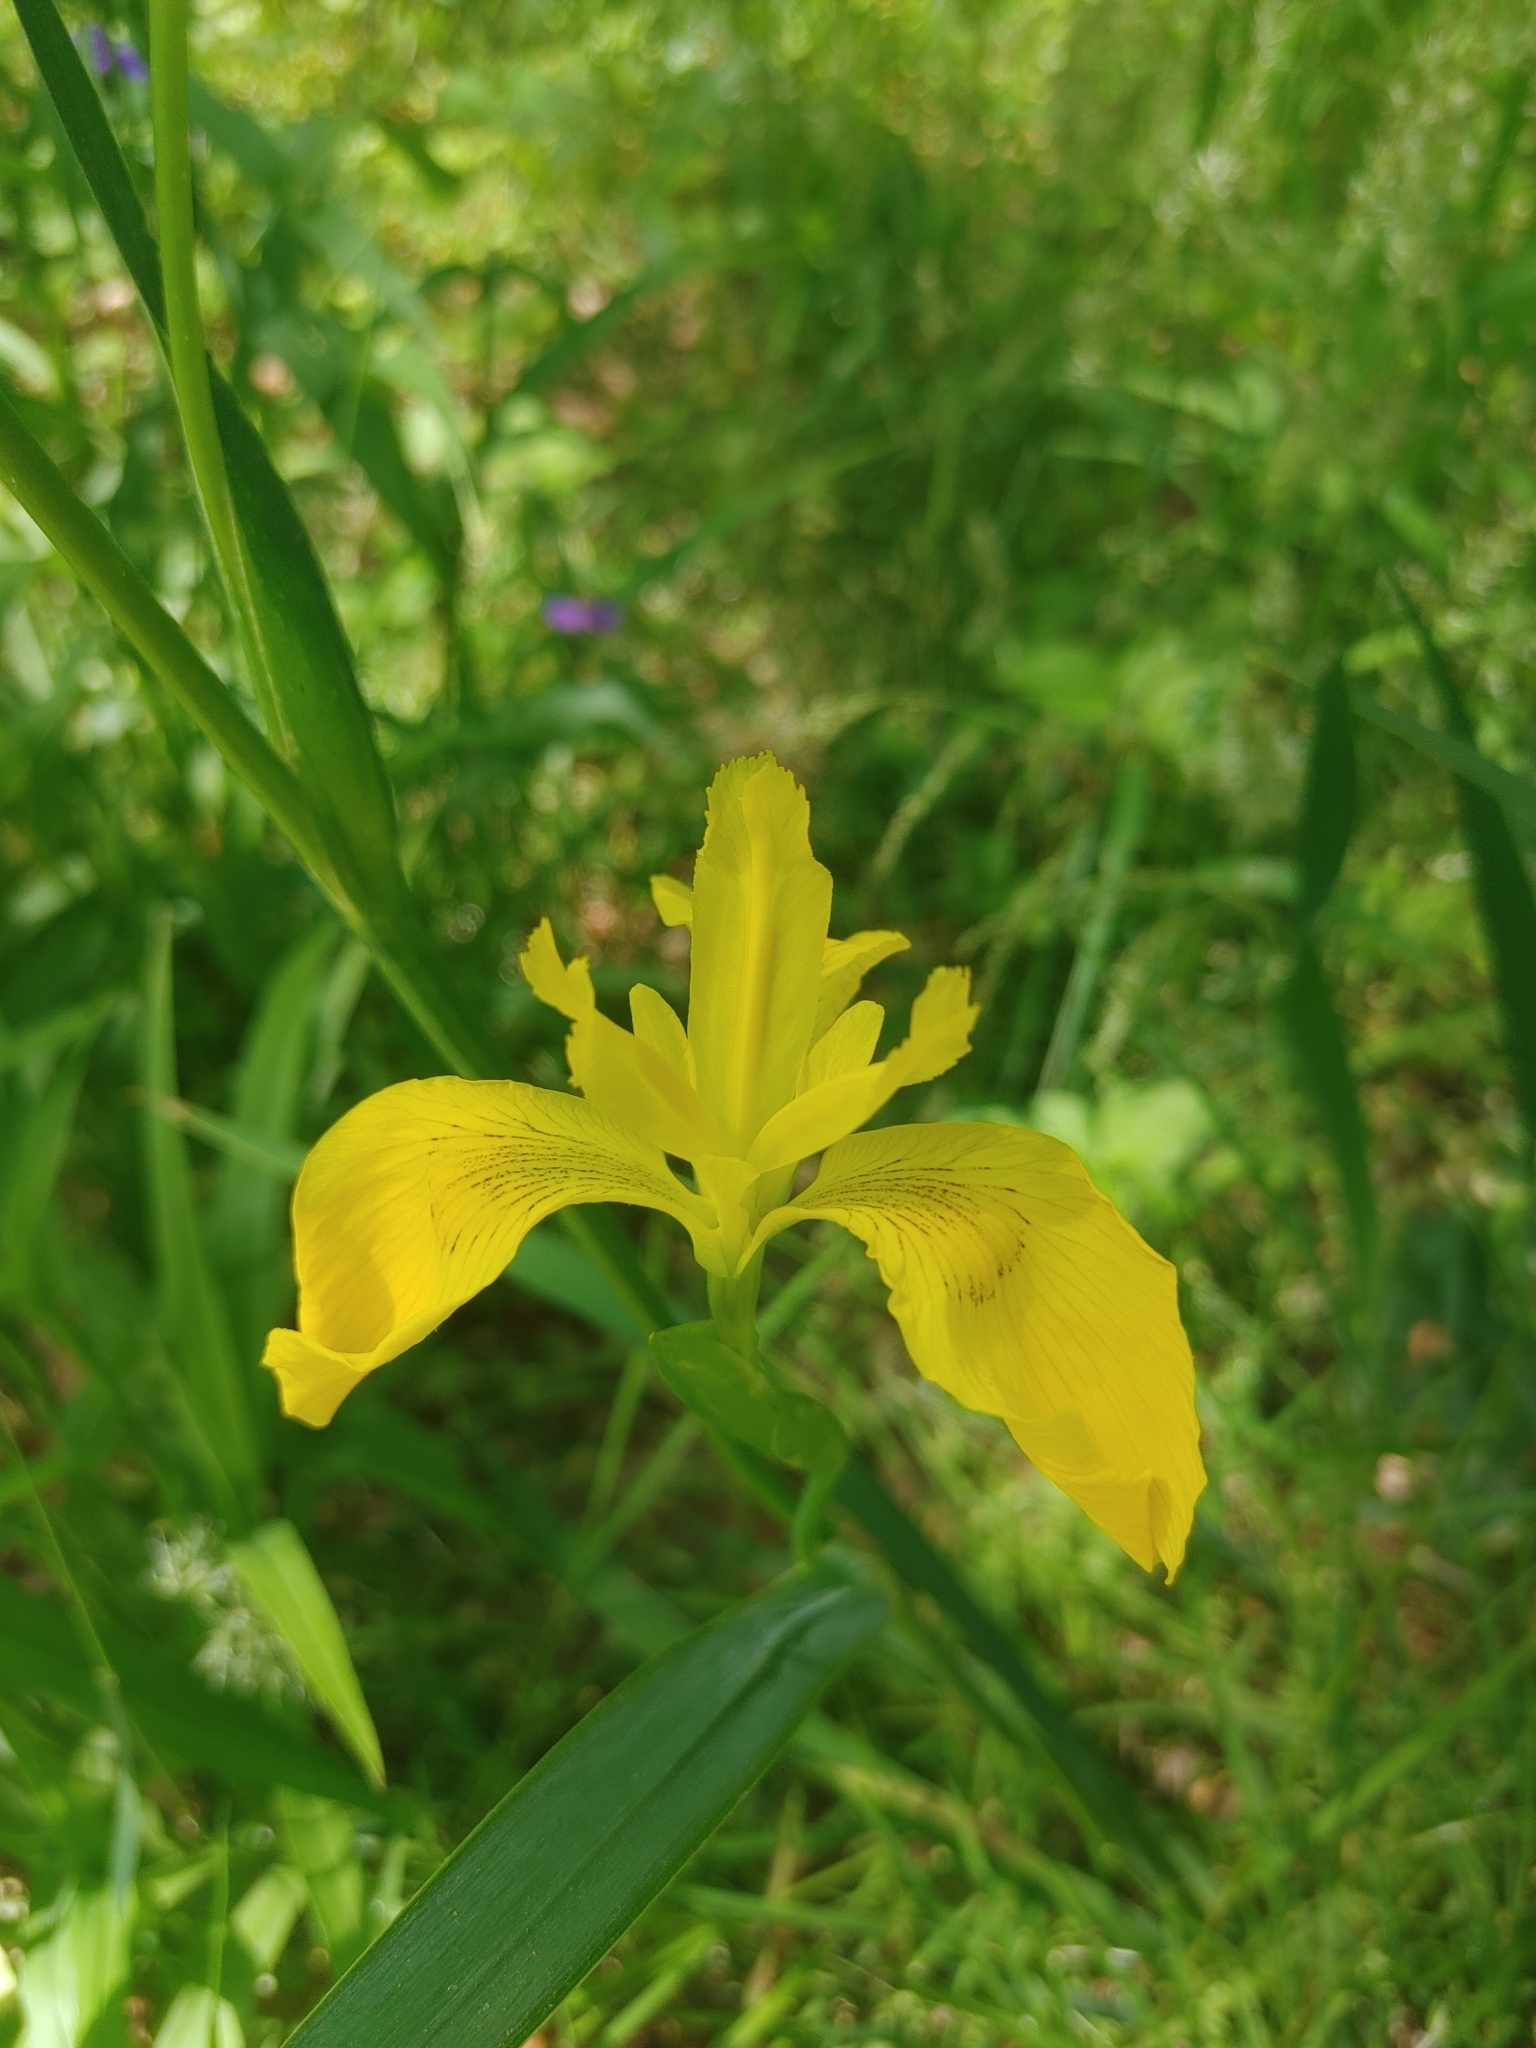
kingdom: Plantae
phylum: Tracheophyta
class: Liliopsida
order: Asparagales
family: Iridaceae
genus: Iris
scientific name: Iris pseudacorus
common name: Yellow flag
